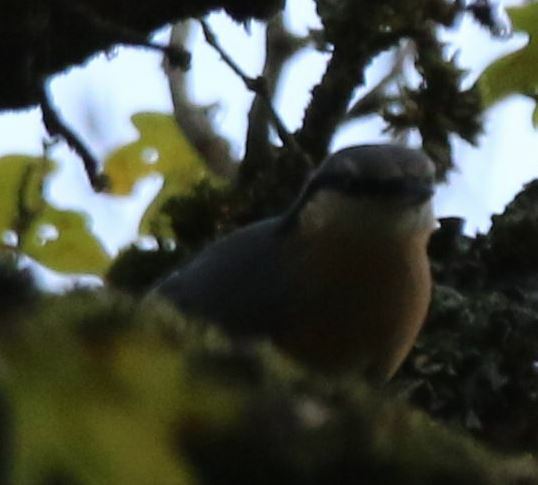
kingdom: Animalia
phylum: Chordata
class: Aves
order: Passeriformes
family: Sittidae
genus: Sitta
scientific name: Sitta europaea
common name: Eurasian nuthatch
